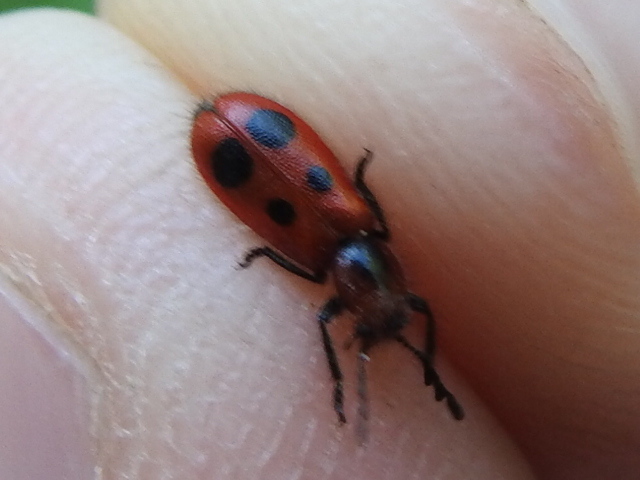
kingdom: Animalia
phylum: Arthropoda
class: Insecta
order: Coleoptera
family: Cleridae
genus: Pelonides
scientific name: Pelonides
